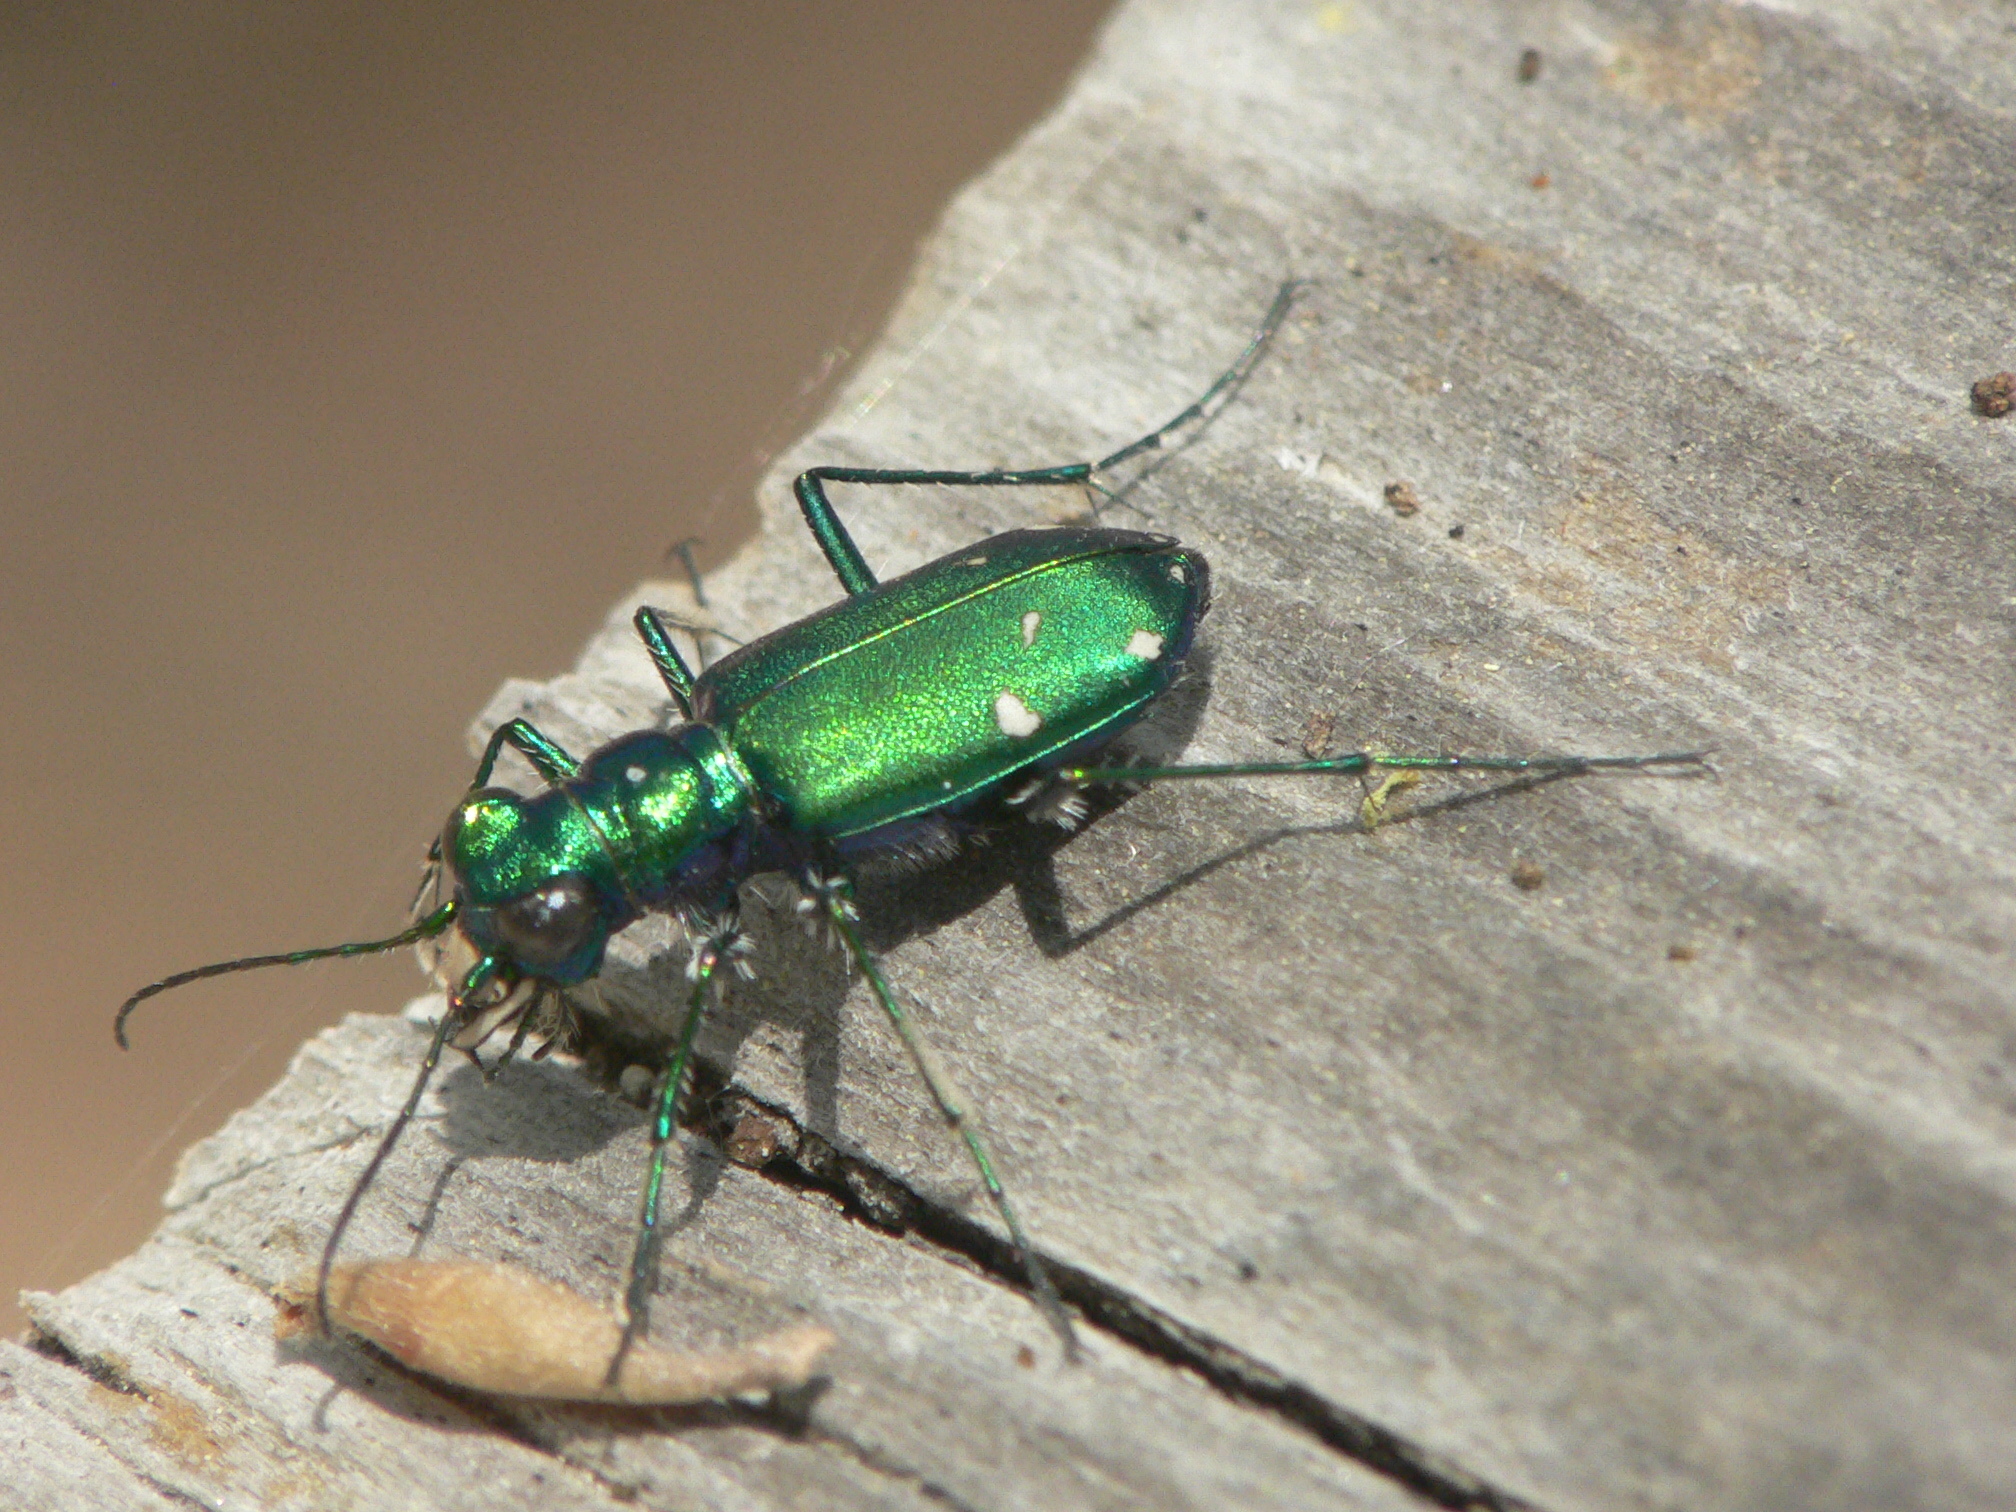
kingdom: Animalia
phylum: Arthropoda
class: Insecta
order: Coleoptera
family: Carabidae
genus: Cicindela
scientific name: Cicindela sexguttata
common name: Six-spotted tiger beetle
